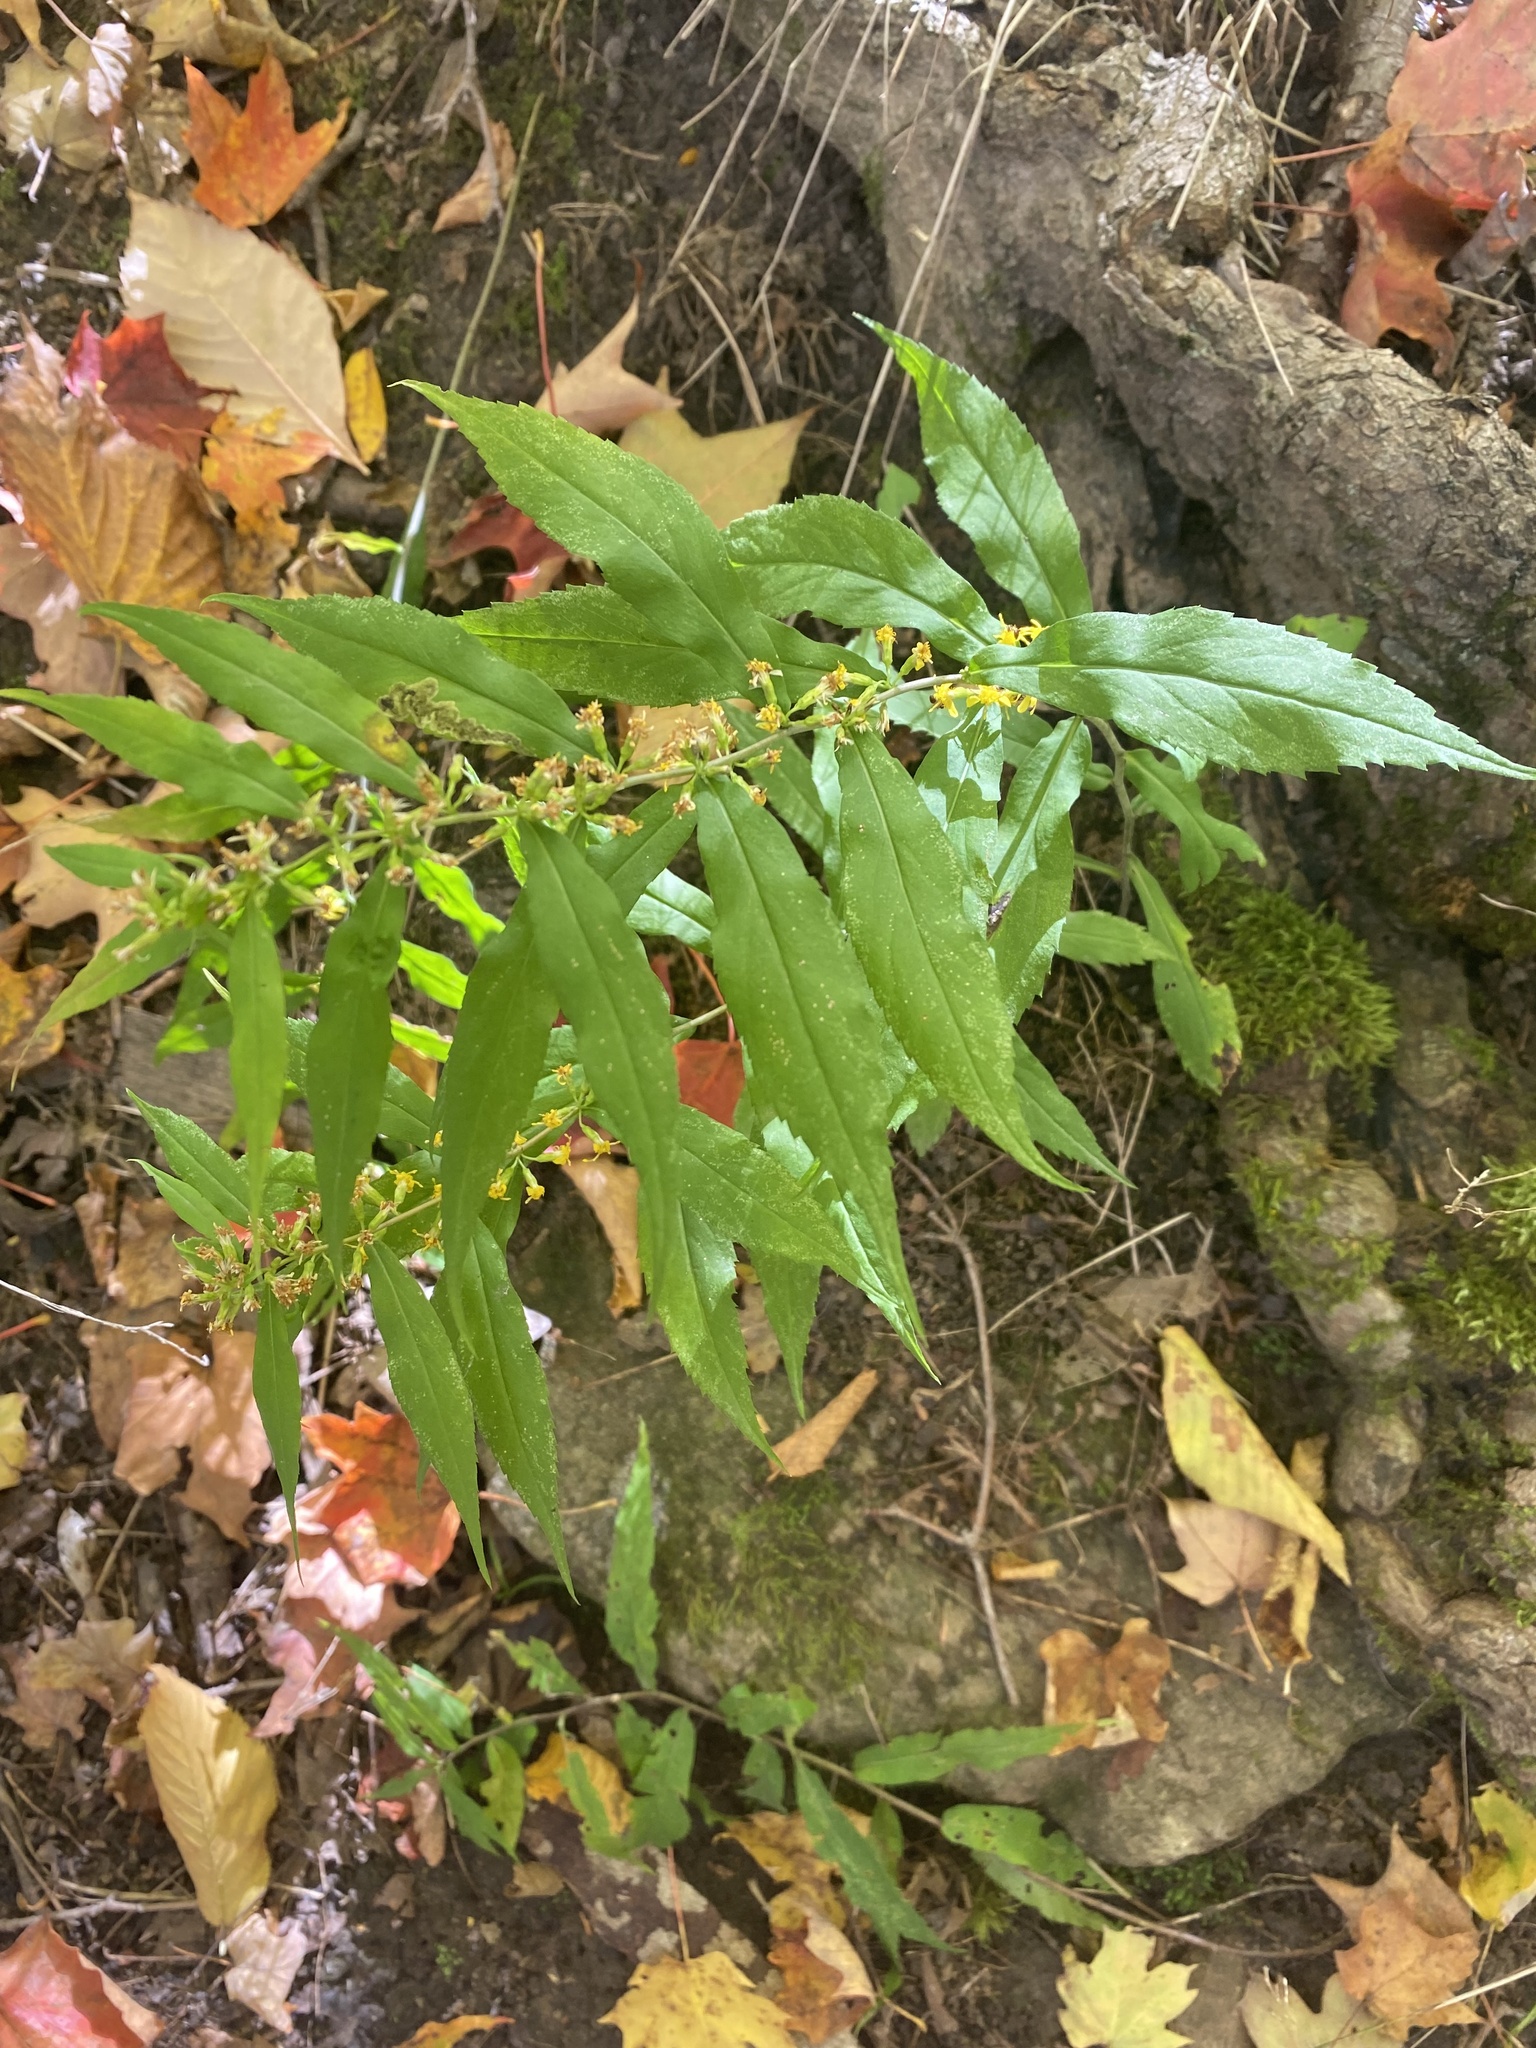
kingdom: Plantae
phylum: Tracheophyta
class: Magnoliopsida
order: Asterales
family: Asteraceae
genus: Solidago
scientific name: Solidago caesia
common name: Woodland goldenrod
